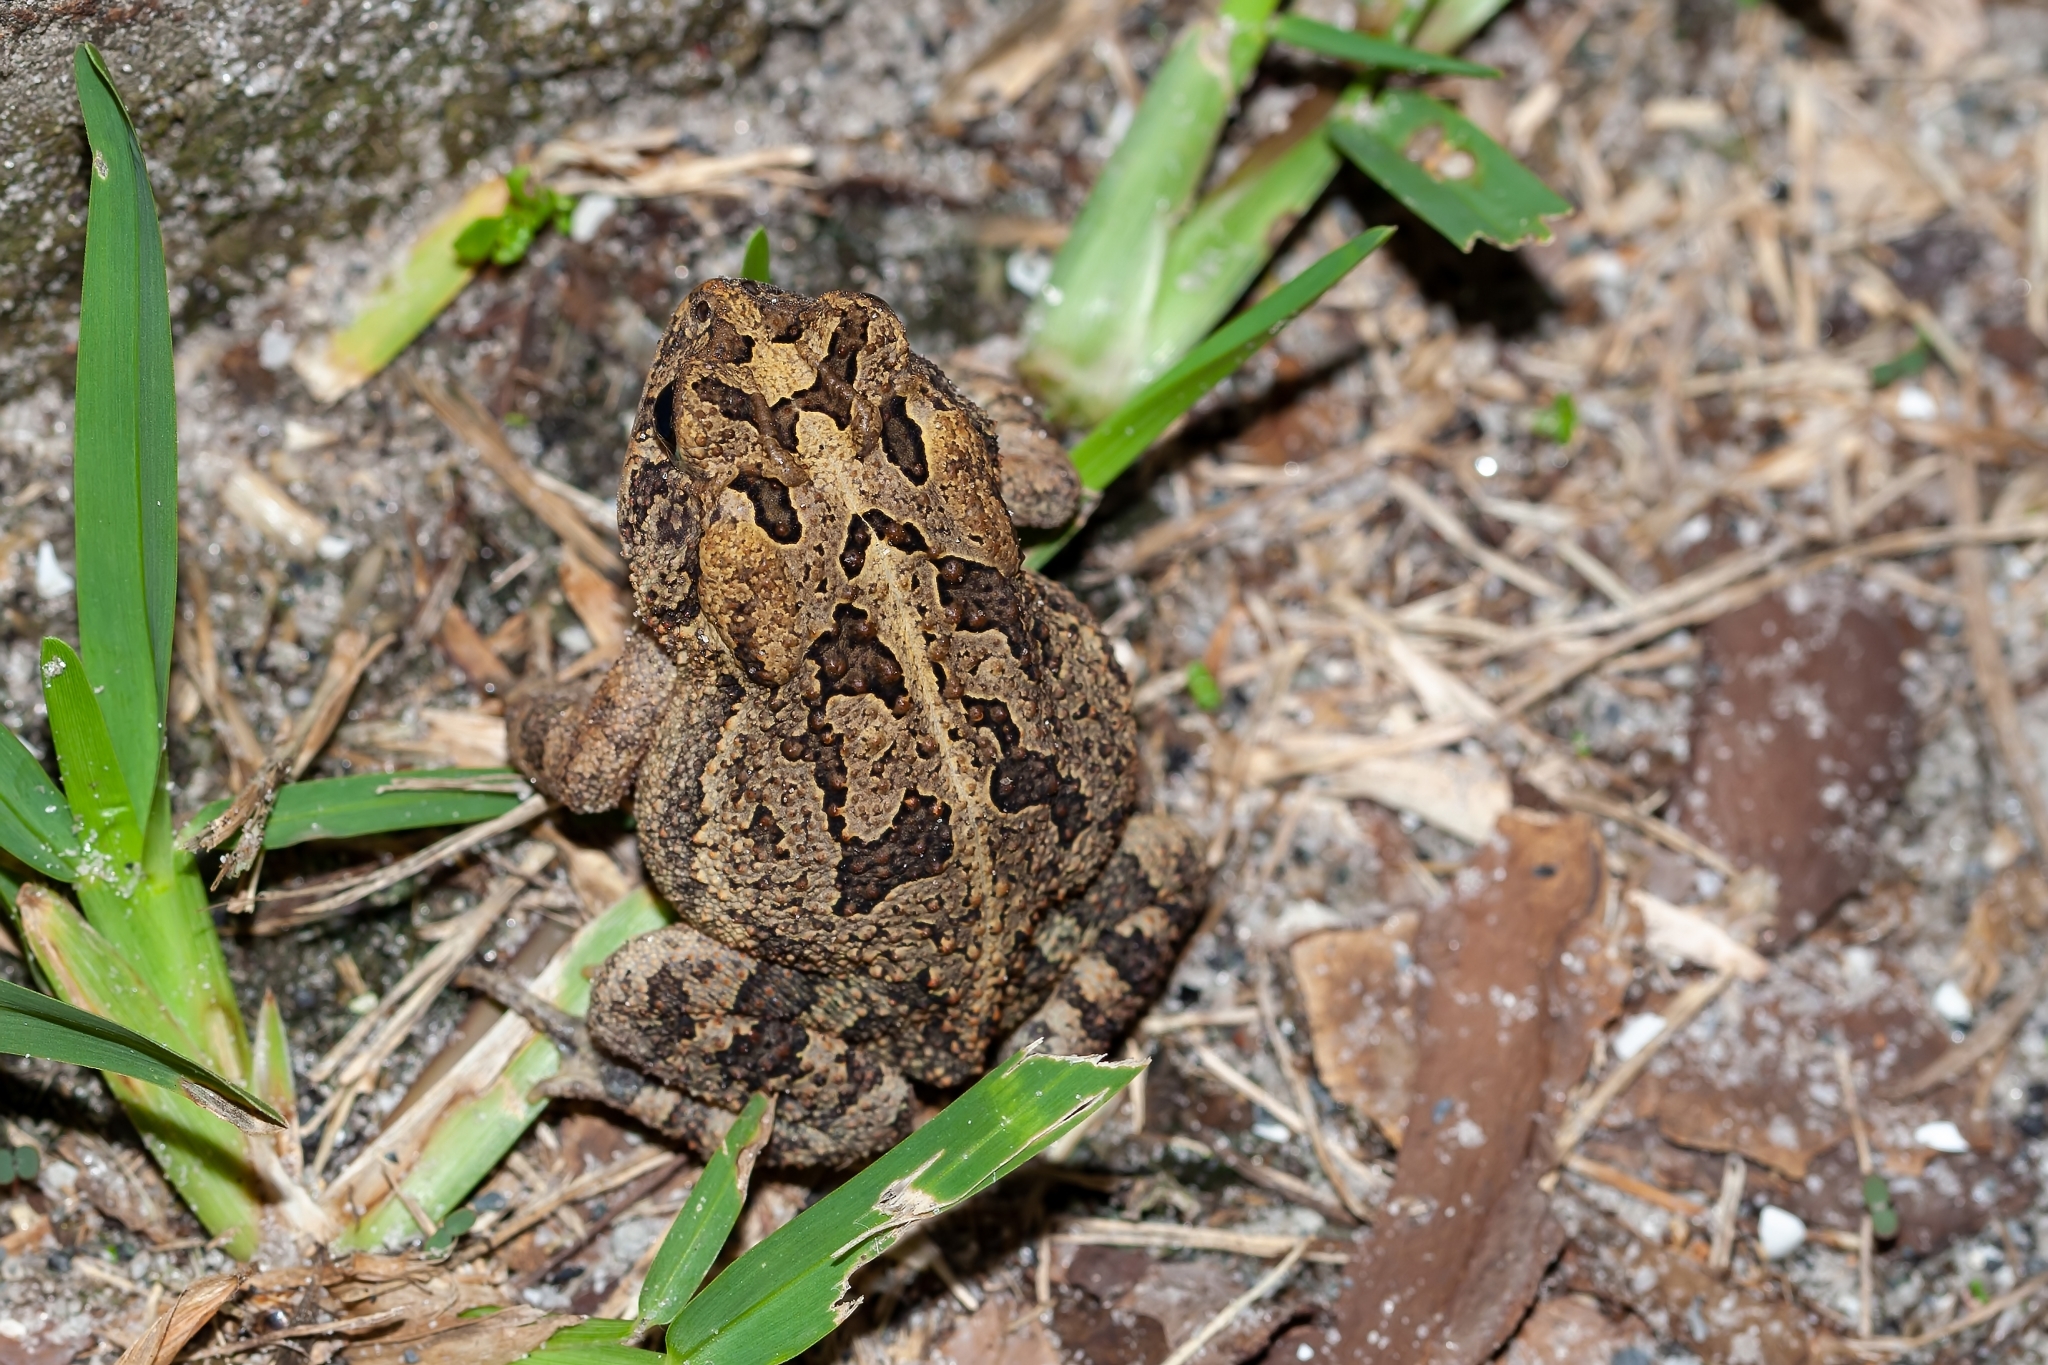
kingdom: Animalia
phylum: Chordata
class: Amphibia
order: Anura
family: Bufonidae
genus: Anaxyrus
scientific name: Anaxyrus terrestris
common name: Southern toad
